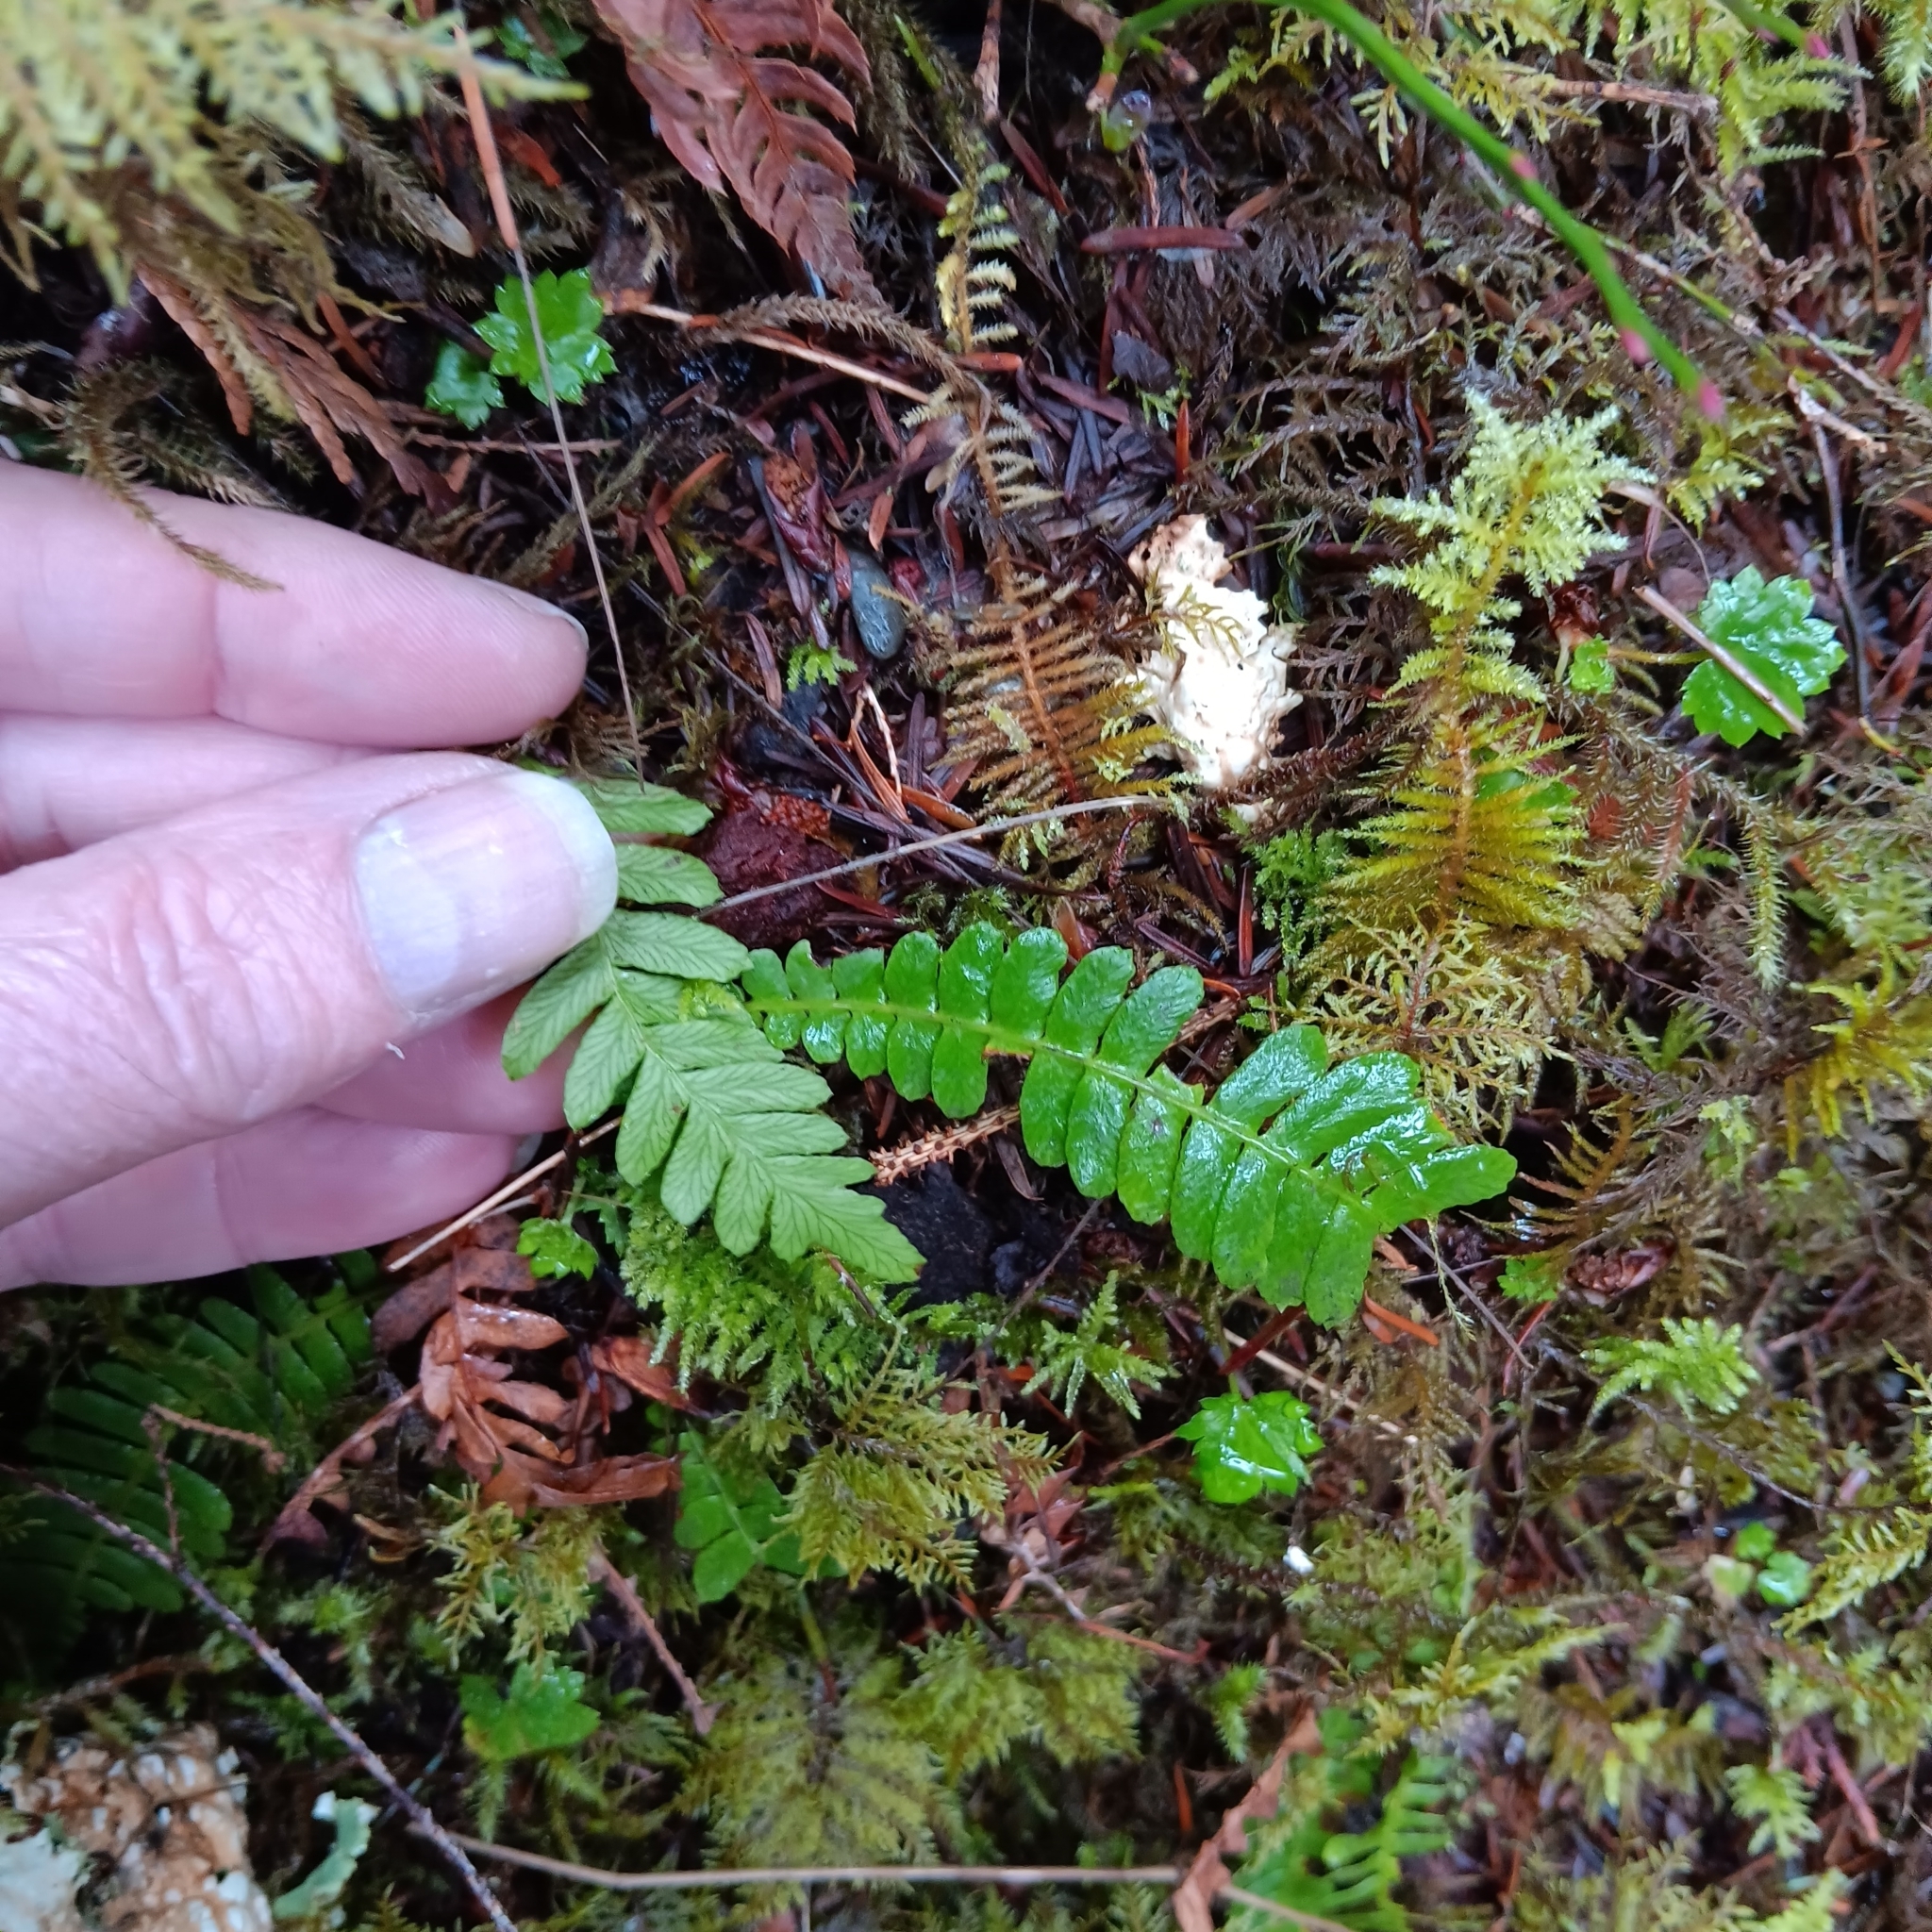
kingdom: Plantae
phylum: Tracheophyta
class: Polypodiopsida
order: Polypodiales
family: Blechnaceae
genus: Struthiopteris
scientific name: Struthiopteris spicant
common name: Deer fern
